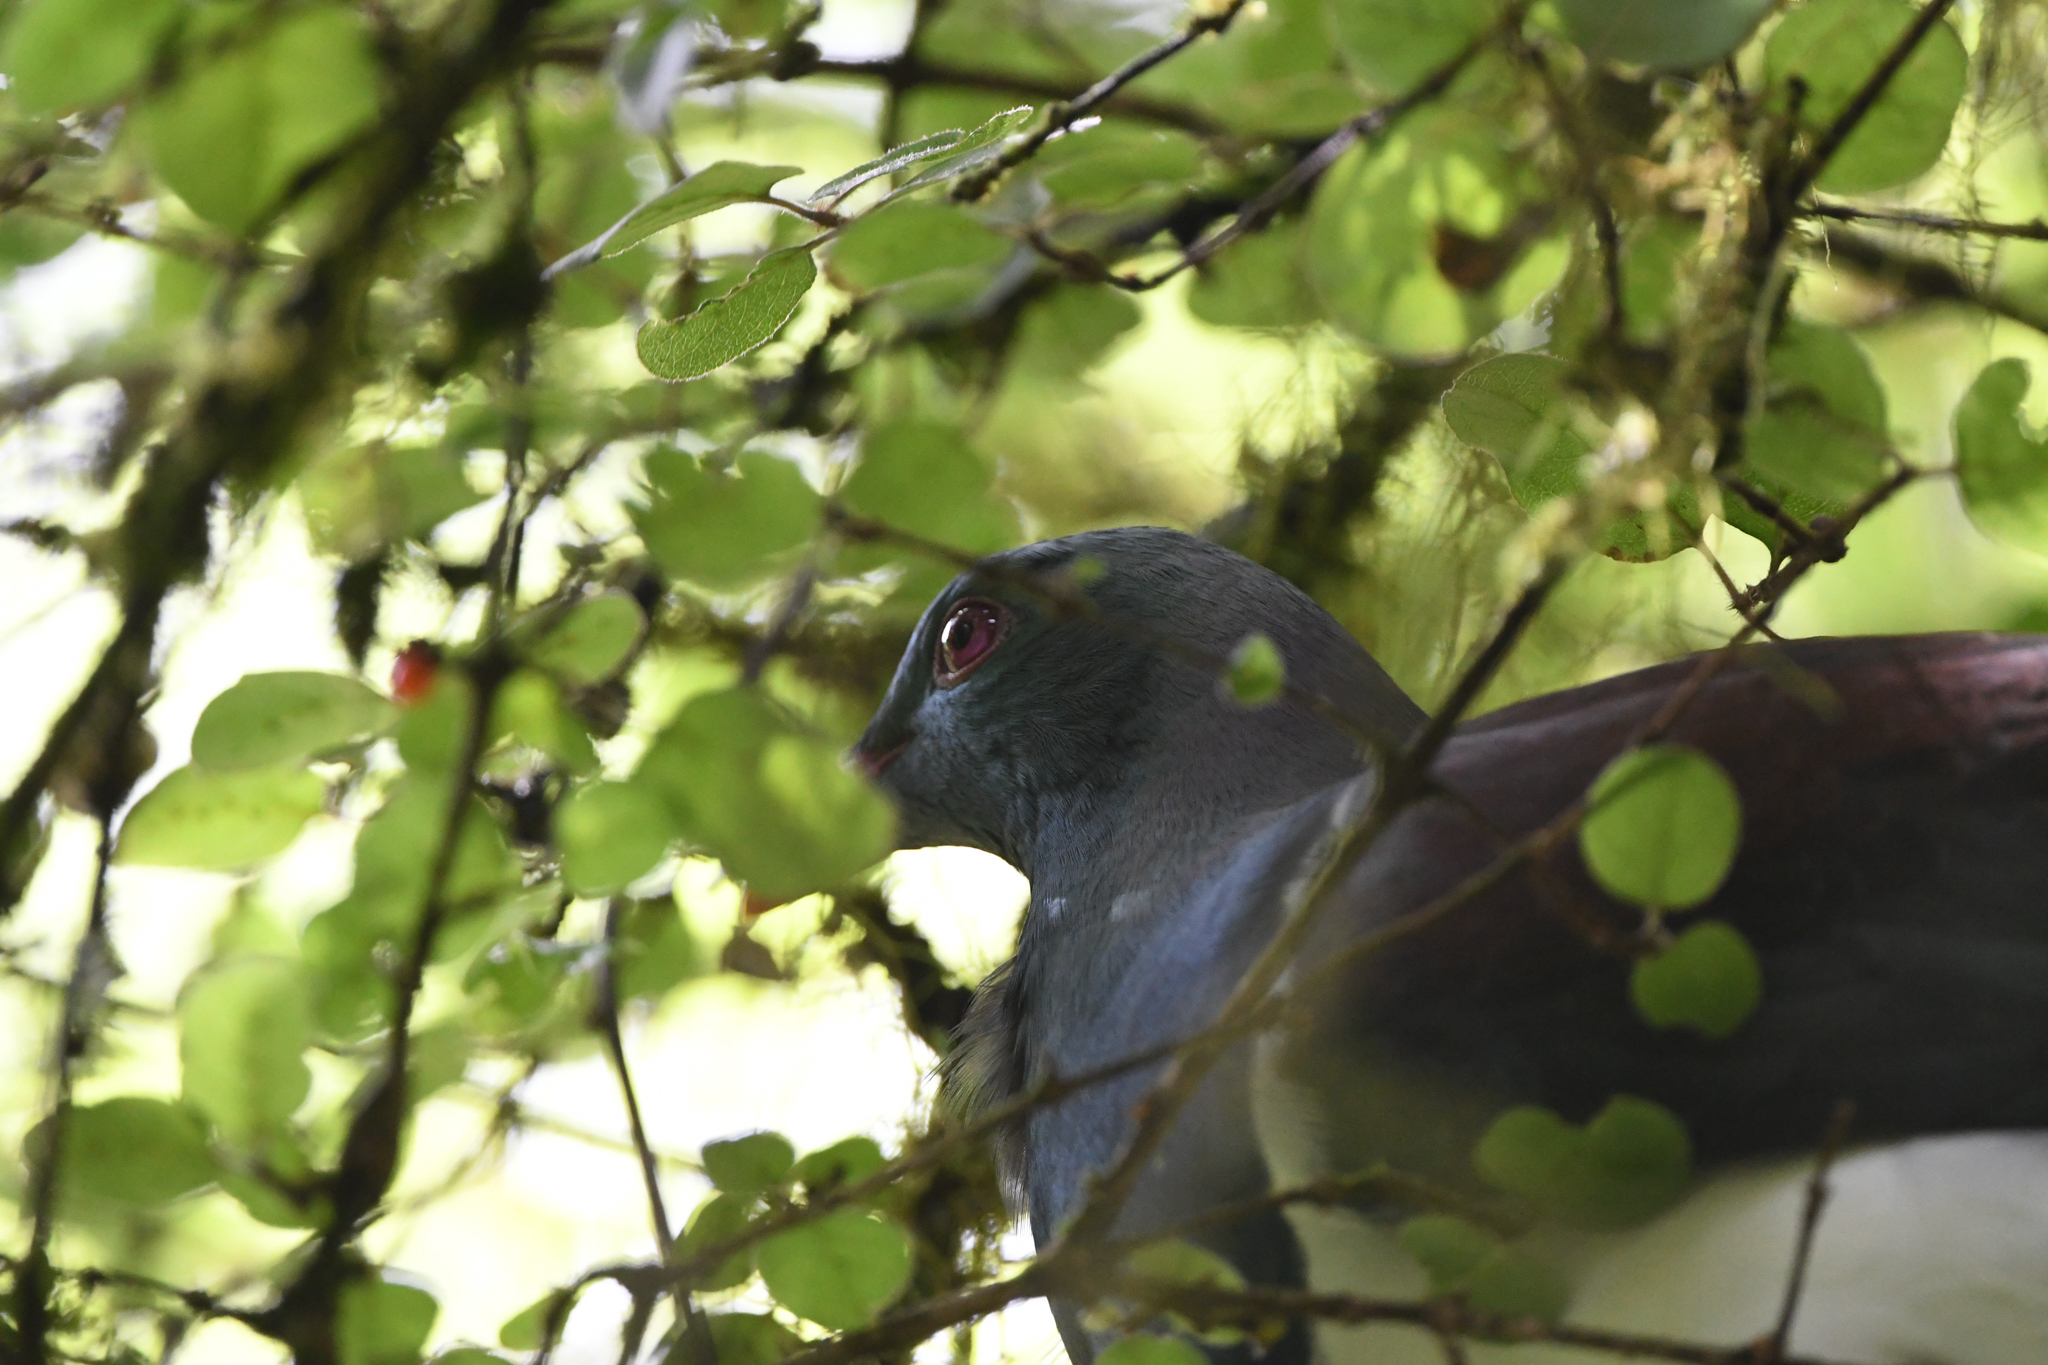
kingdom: Animalia
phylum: Chordata
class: Aves
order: Columbiformes
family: Columbidae
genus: Hemiphaga
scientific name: Hemiphaga novaeseelandiae
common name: New zealand pigeon
